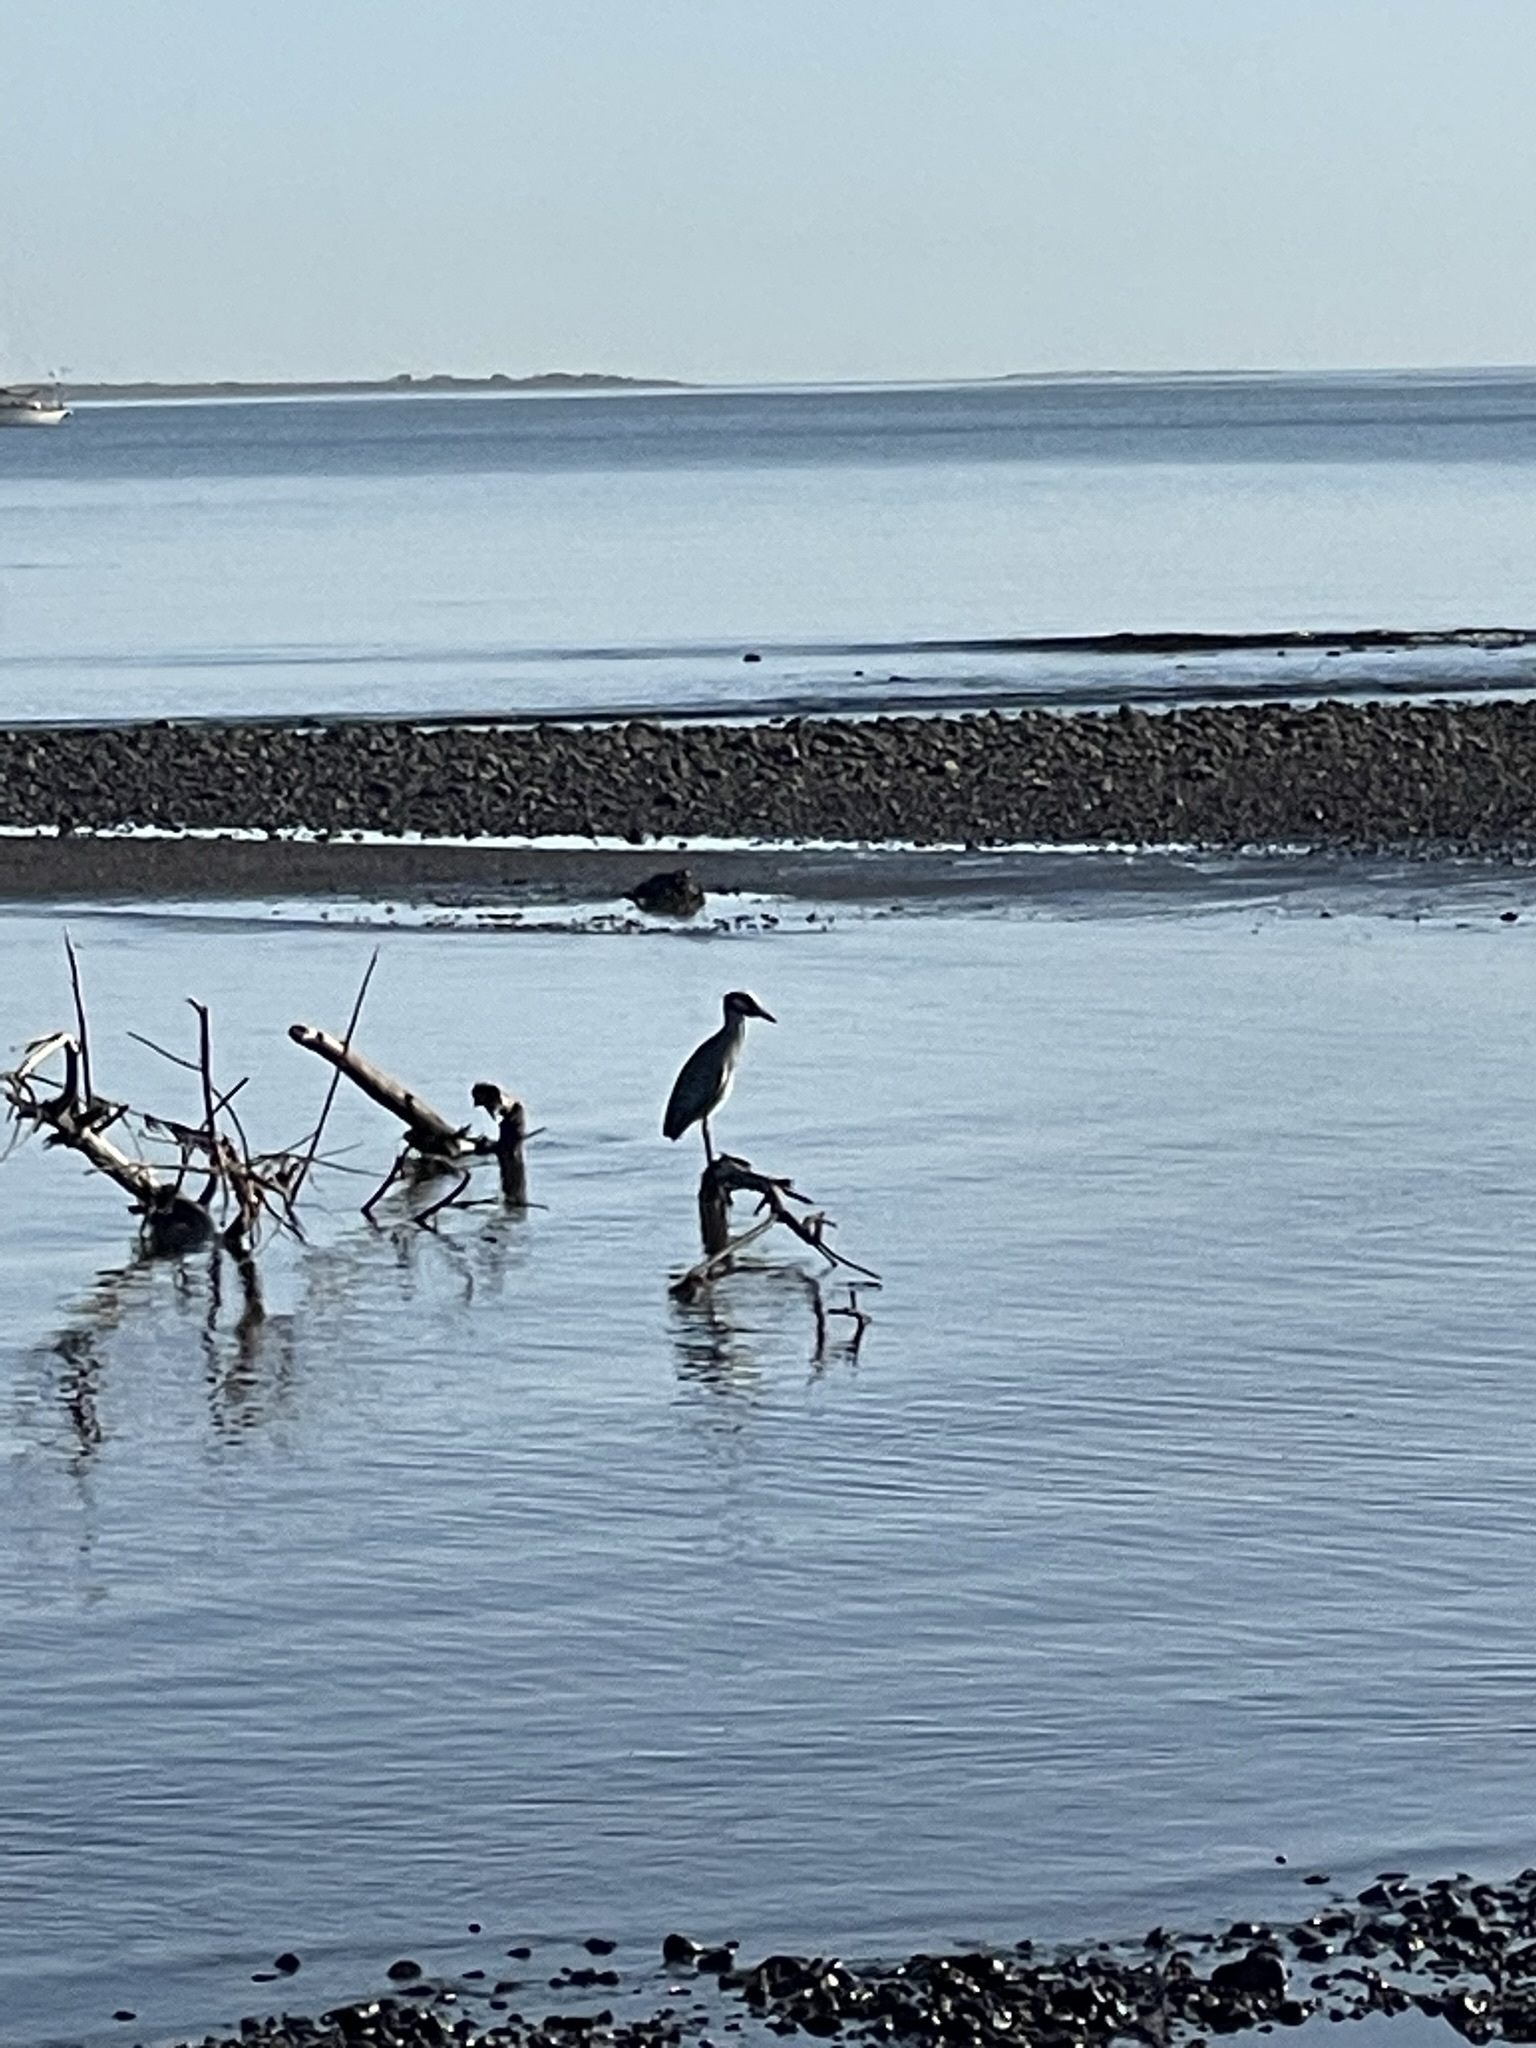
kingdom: Animalia
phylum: Chordata
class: Aves
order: Pelecaniformes
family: Ardeidae
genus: Nyctanassa
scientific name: Nyctanassa violacea
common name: Yellow-crowned night heron
